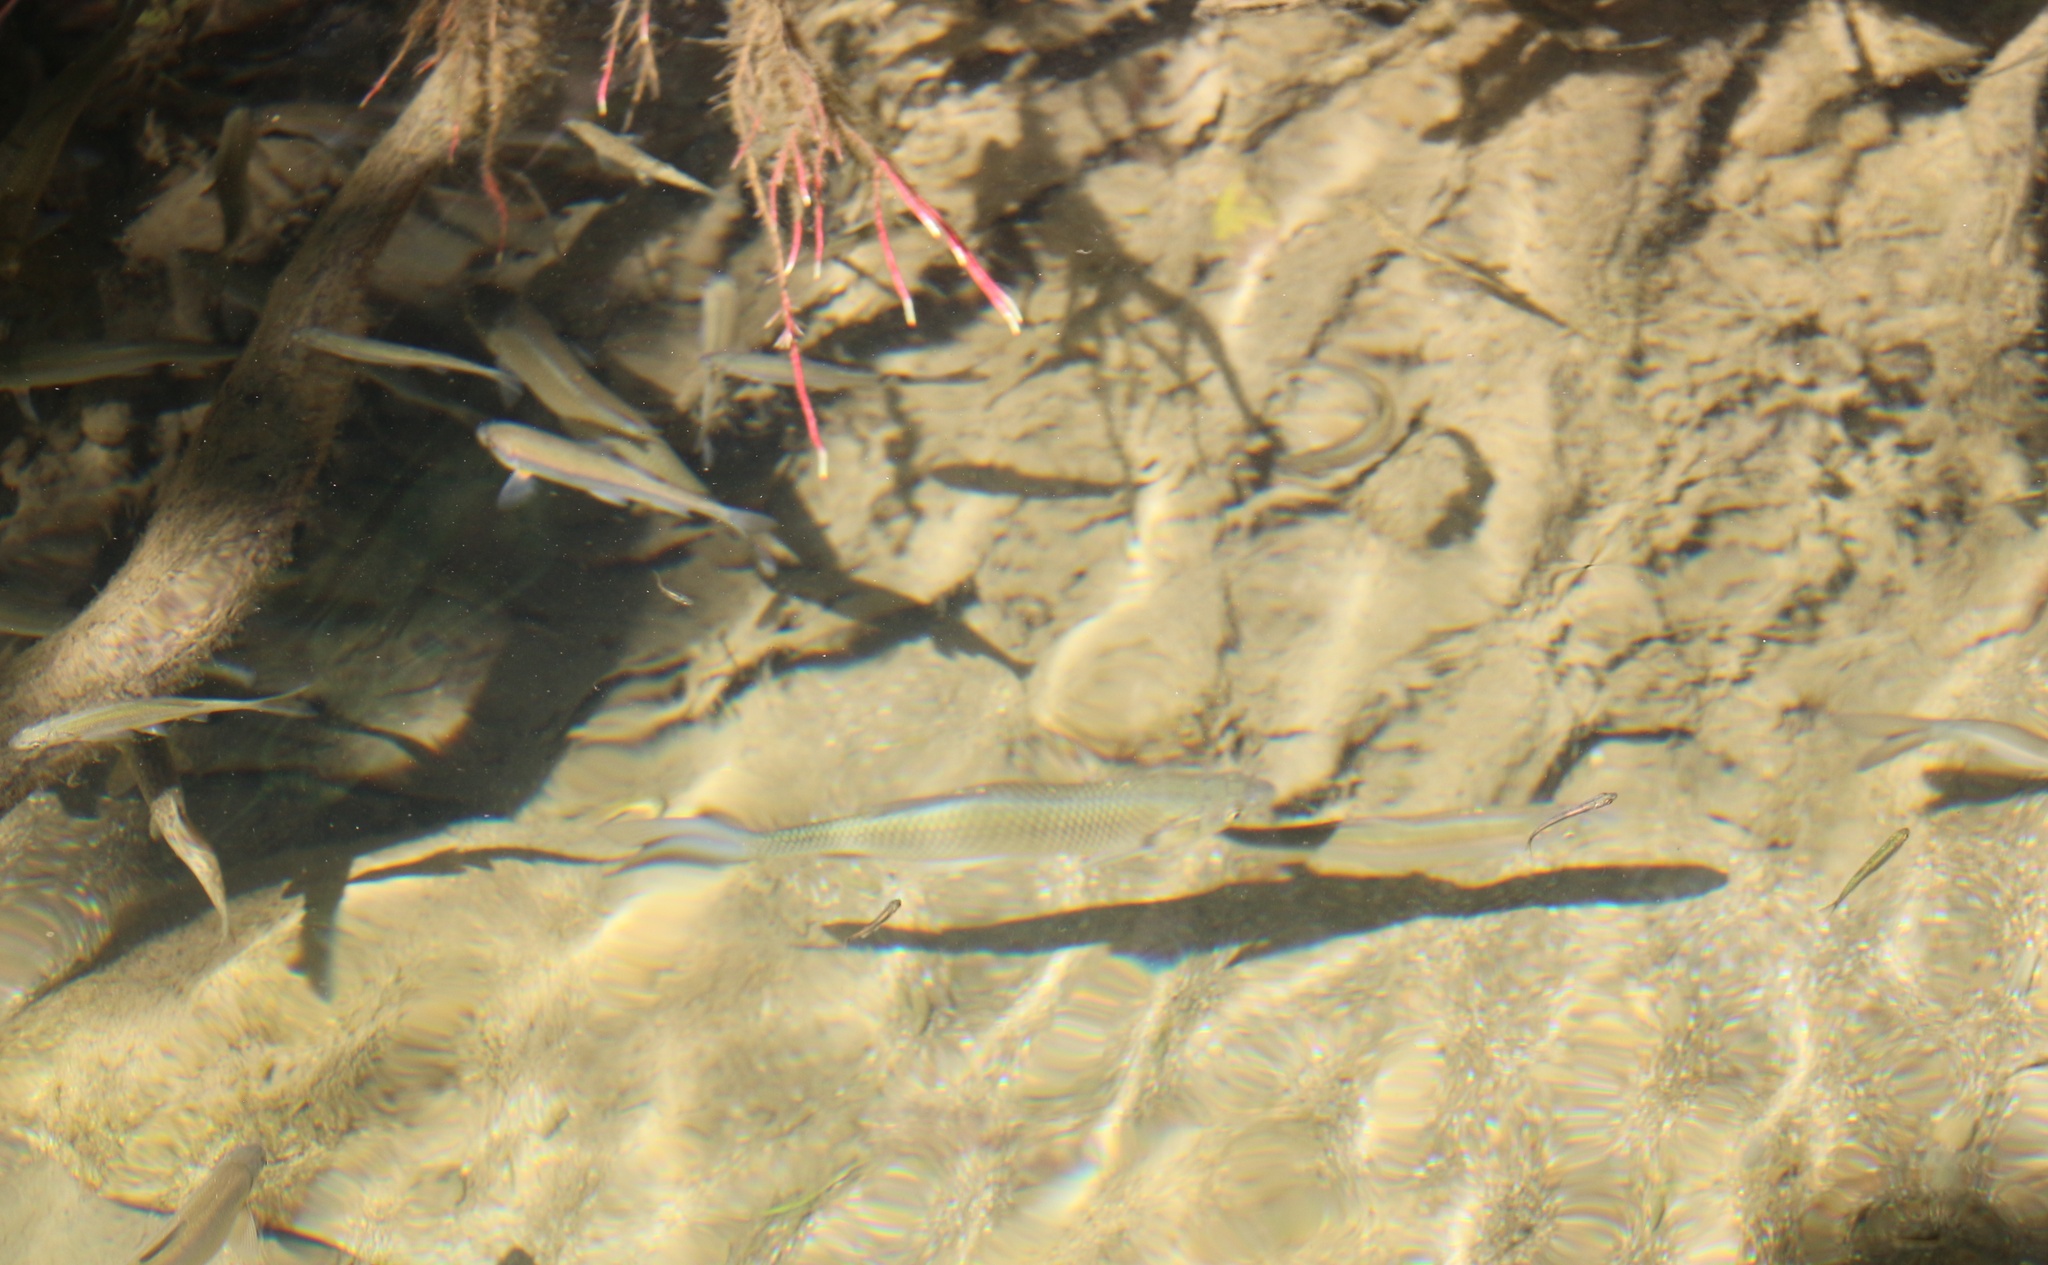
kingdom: Animalia
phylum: Chordata
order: Cypriniformes
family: Cyprinidae
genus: Squalius
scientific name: Squalius cephalus
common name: Chub
